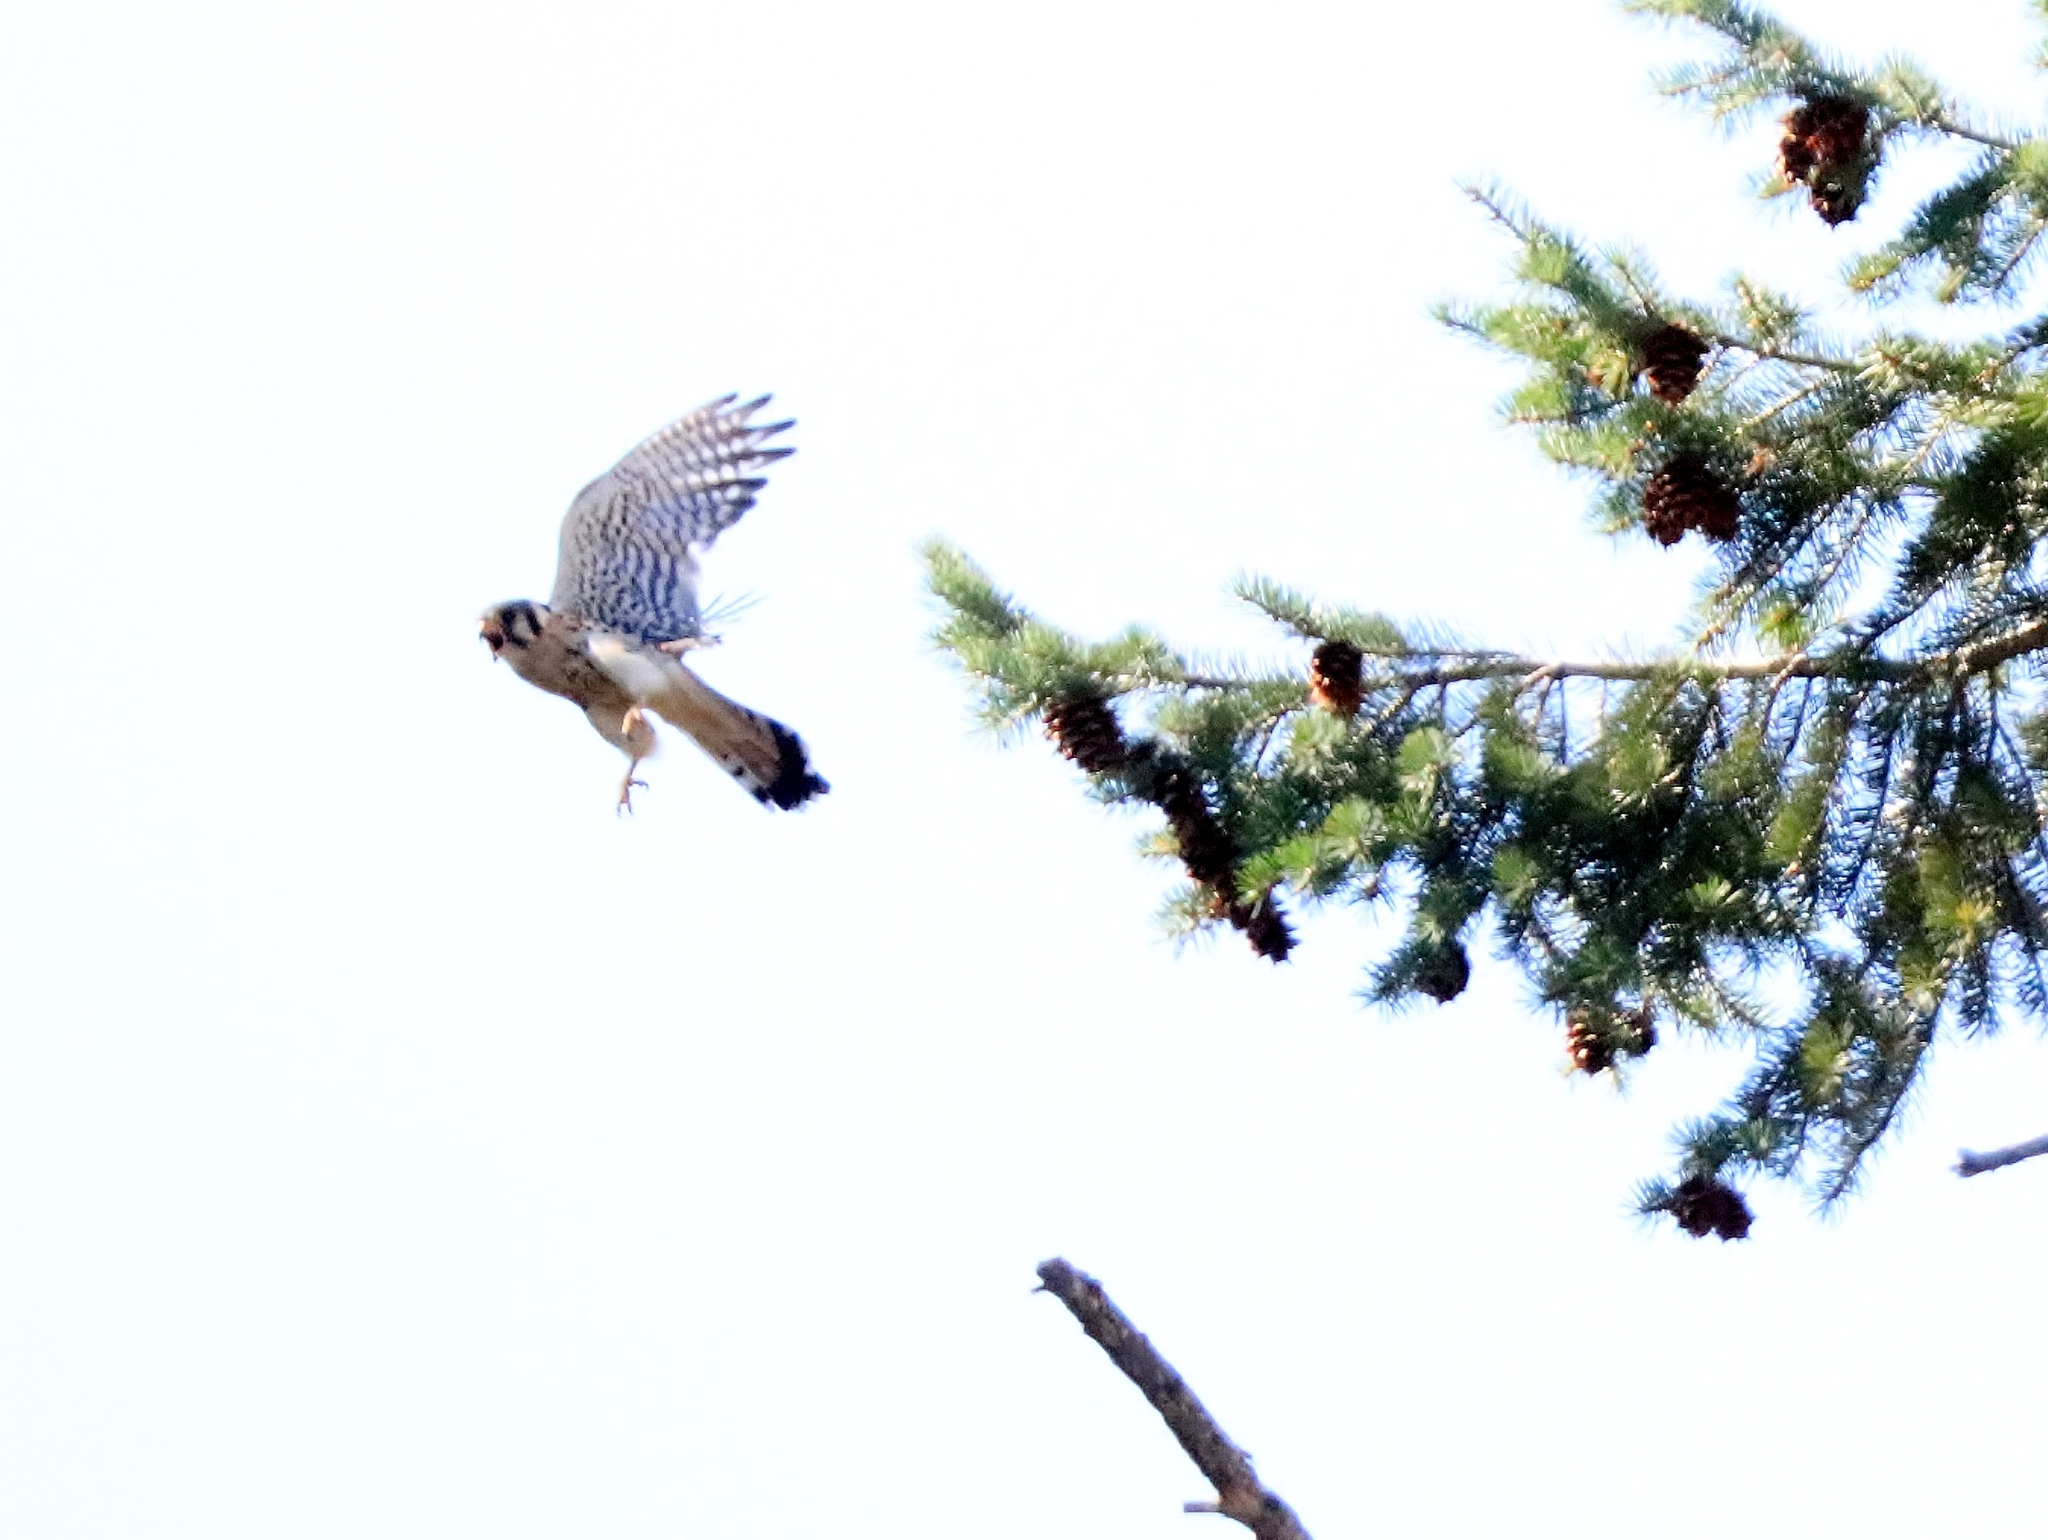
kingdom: Animalia
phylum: Chordata
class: Aves
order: Falconiformes
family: Falconidae
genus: Falco
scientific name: Falco sparverius
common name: American kestrel
